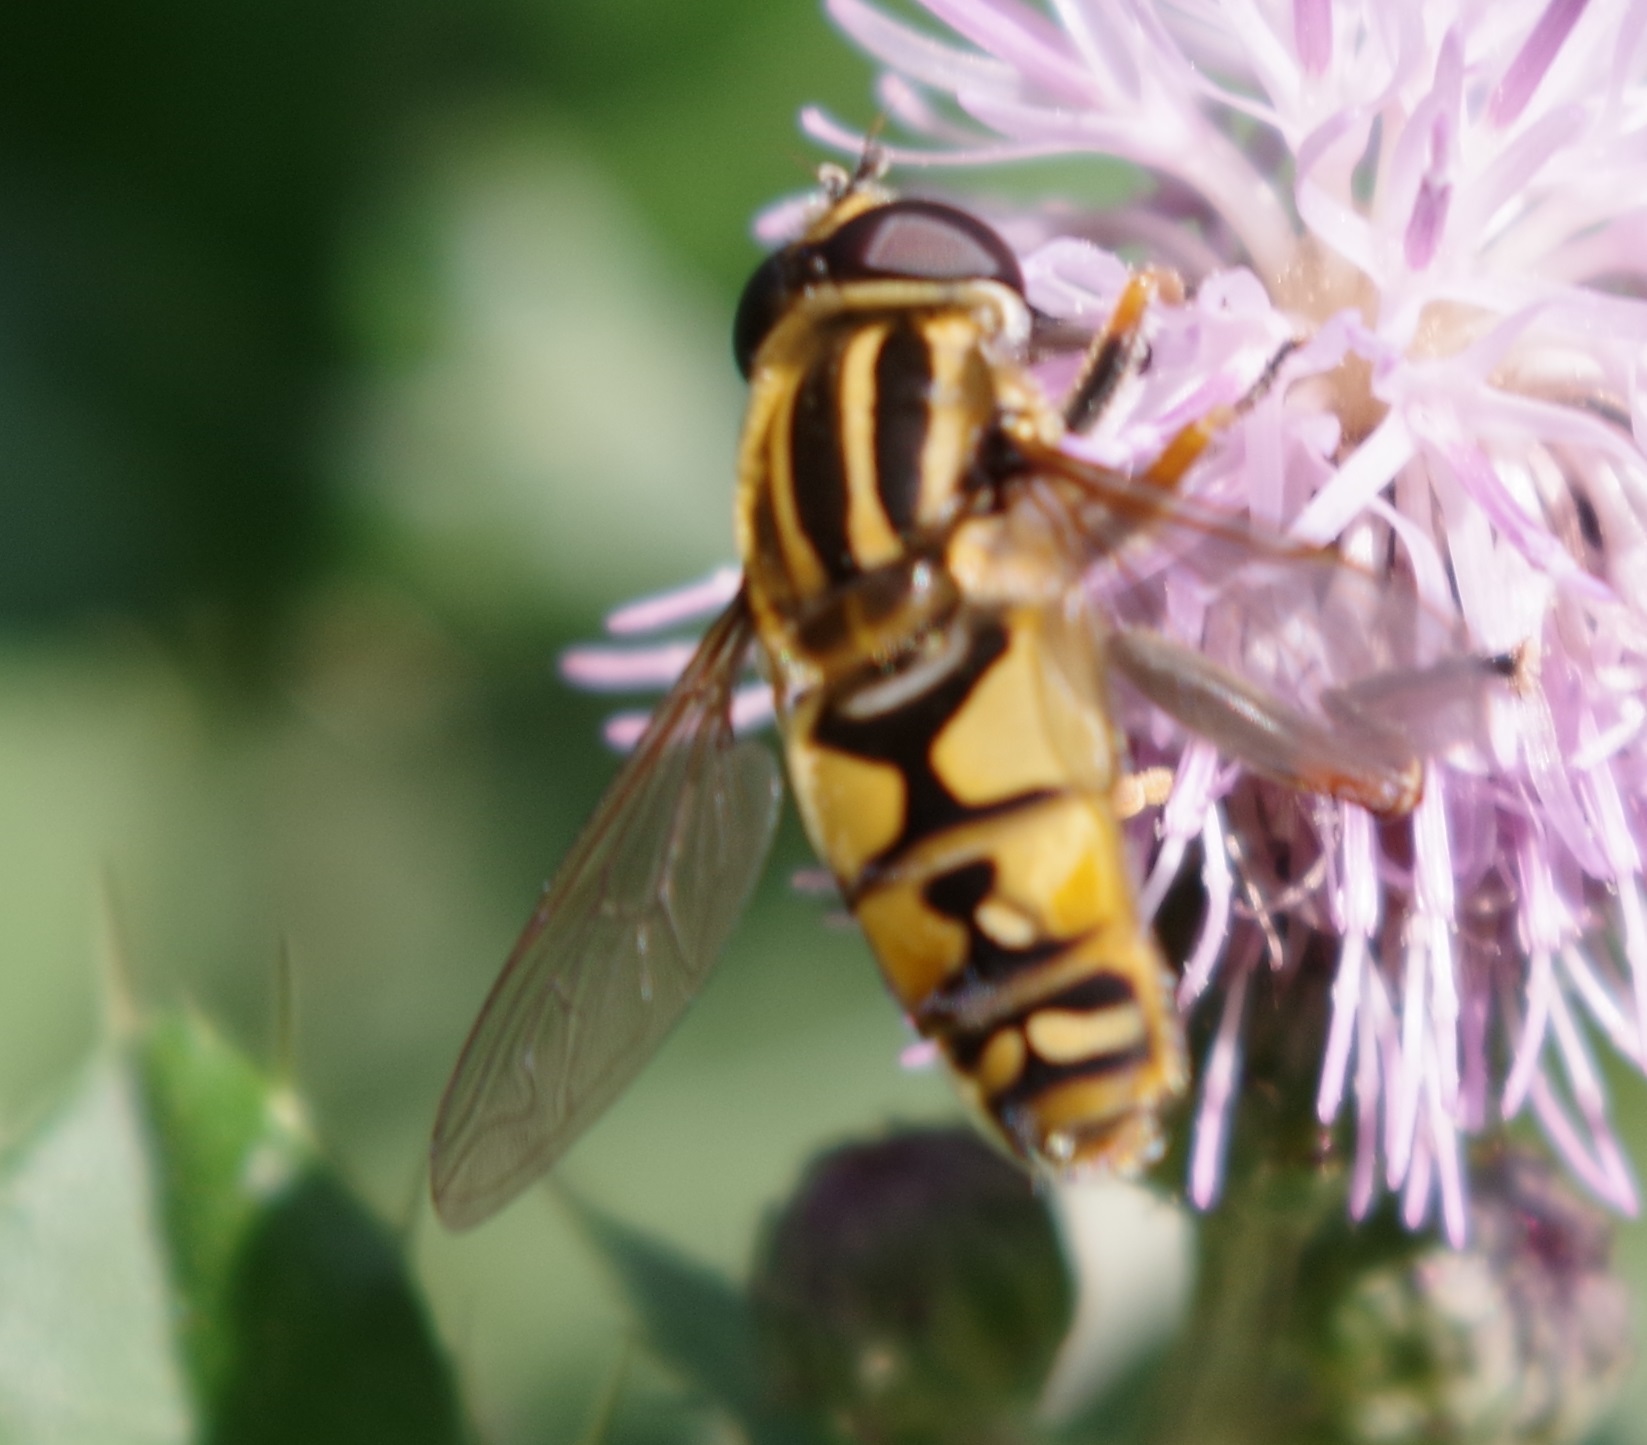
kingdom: Animalia
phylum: Arthropoda
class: Insecta
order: Diptera
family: Syrphidae
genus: Helophilus
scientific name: Helophilus pendulus
